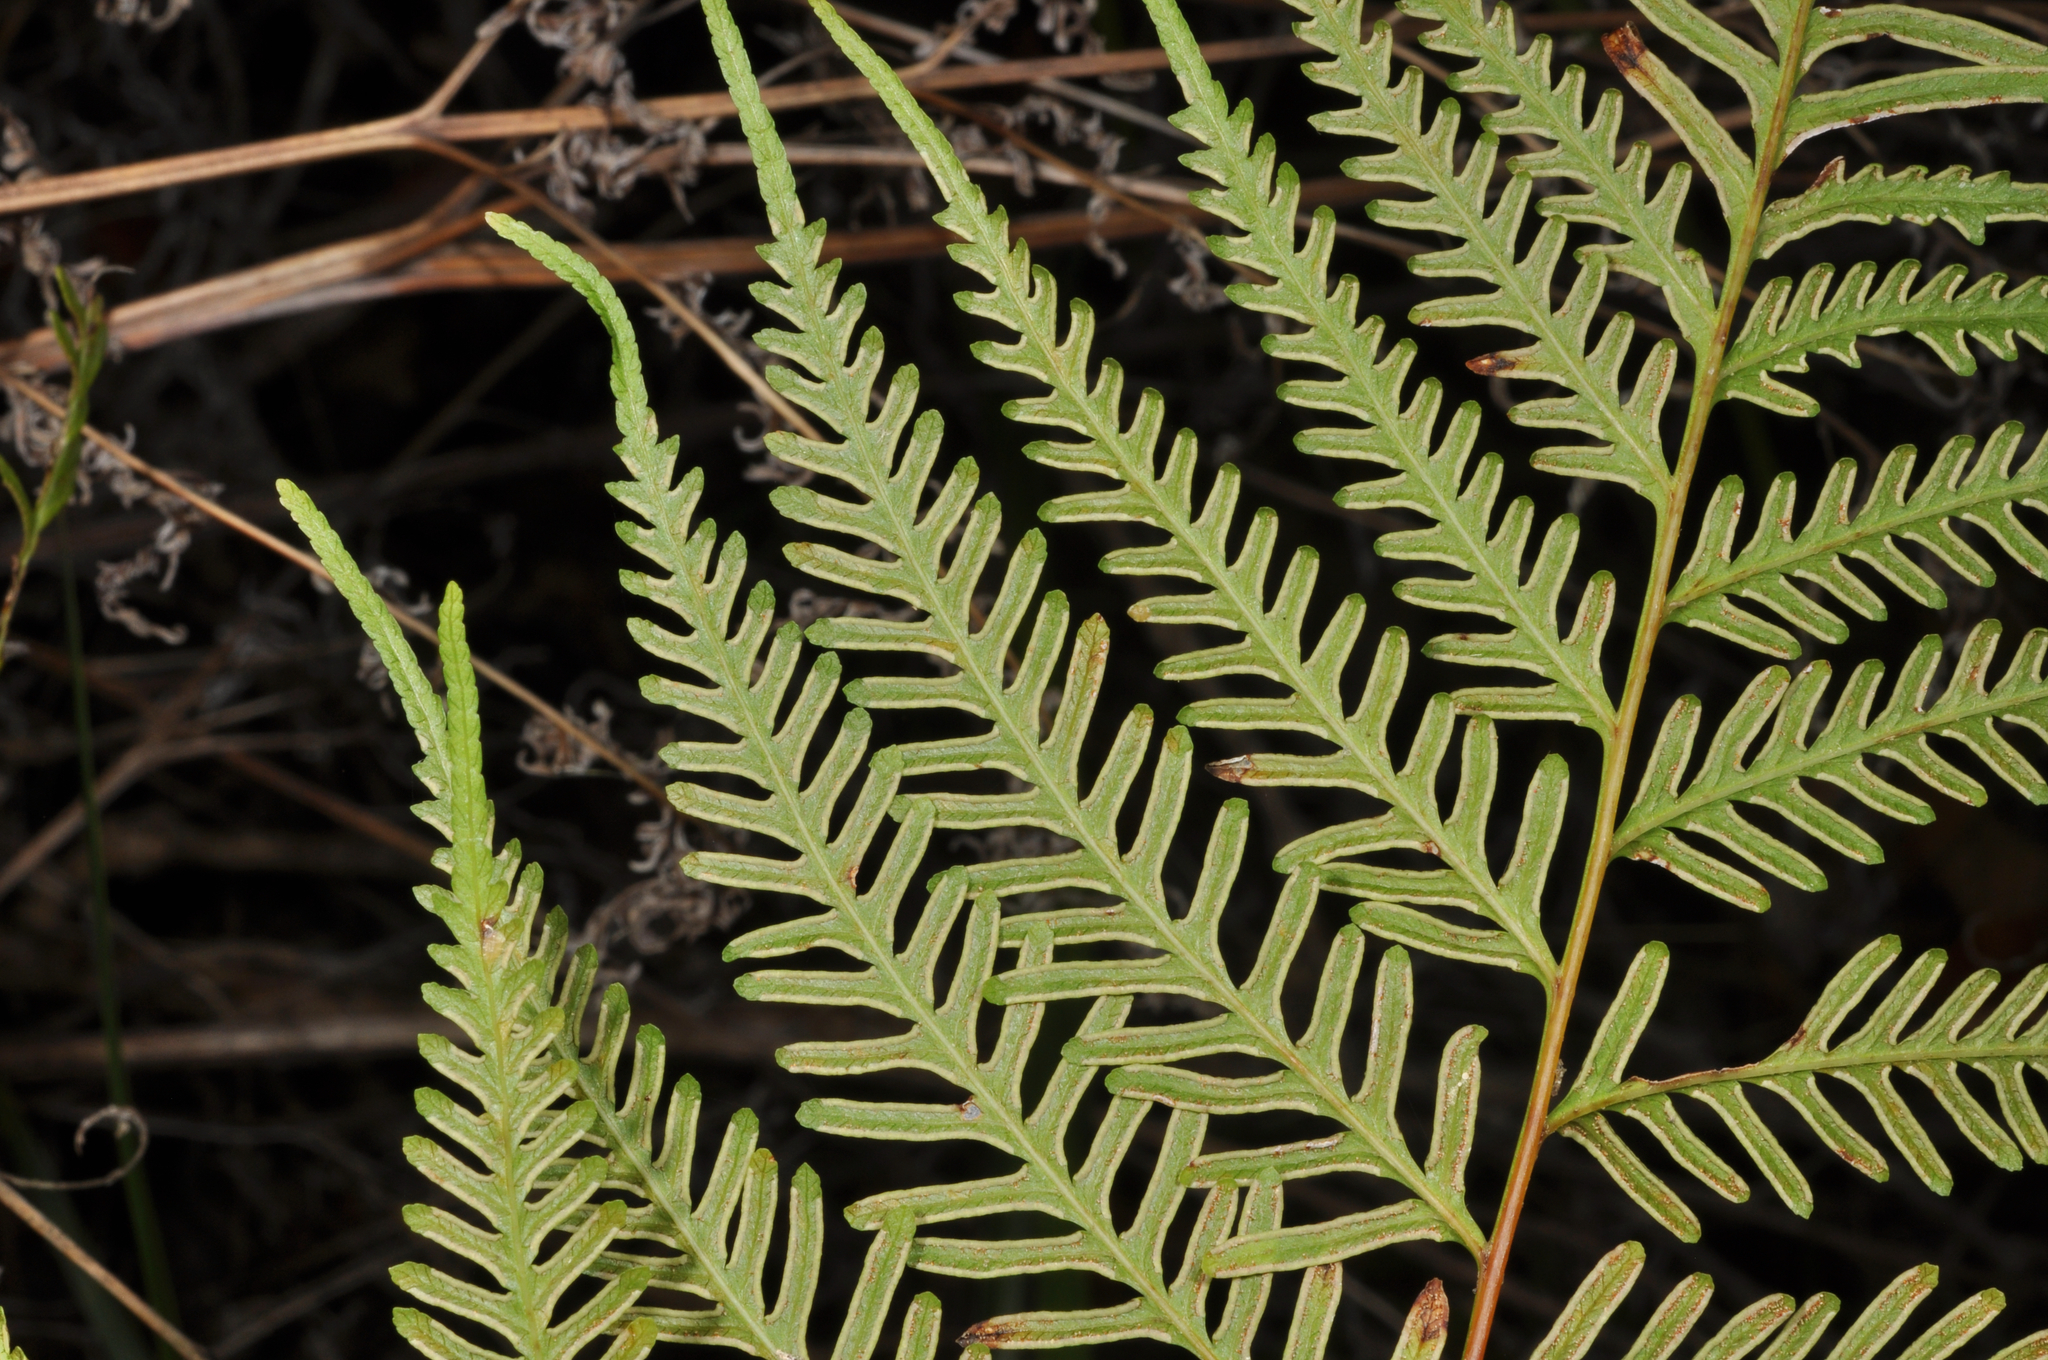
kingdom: Plantae
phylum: Tracheophyta
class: Polypodiopsida
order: Polypodiales
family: Pteridaceae
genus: Pteris
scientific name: Pteris tremula
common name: Australian brake
